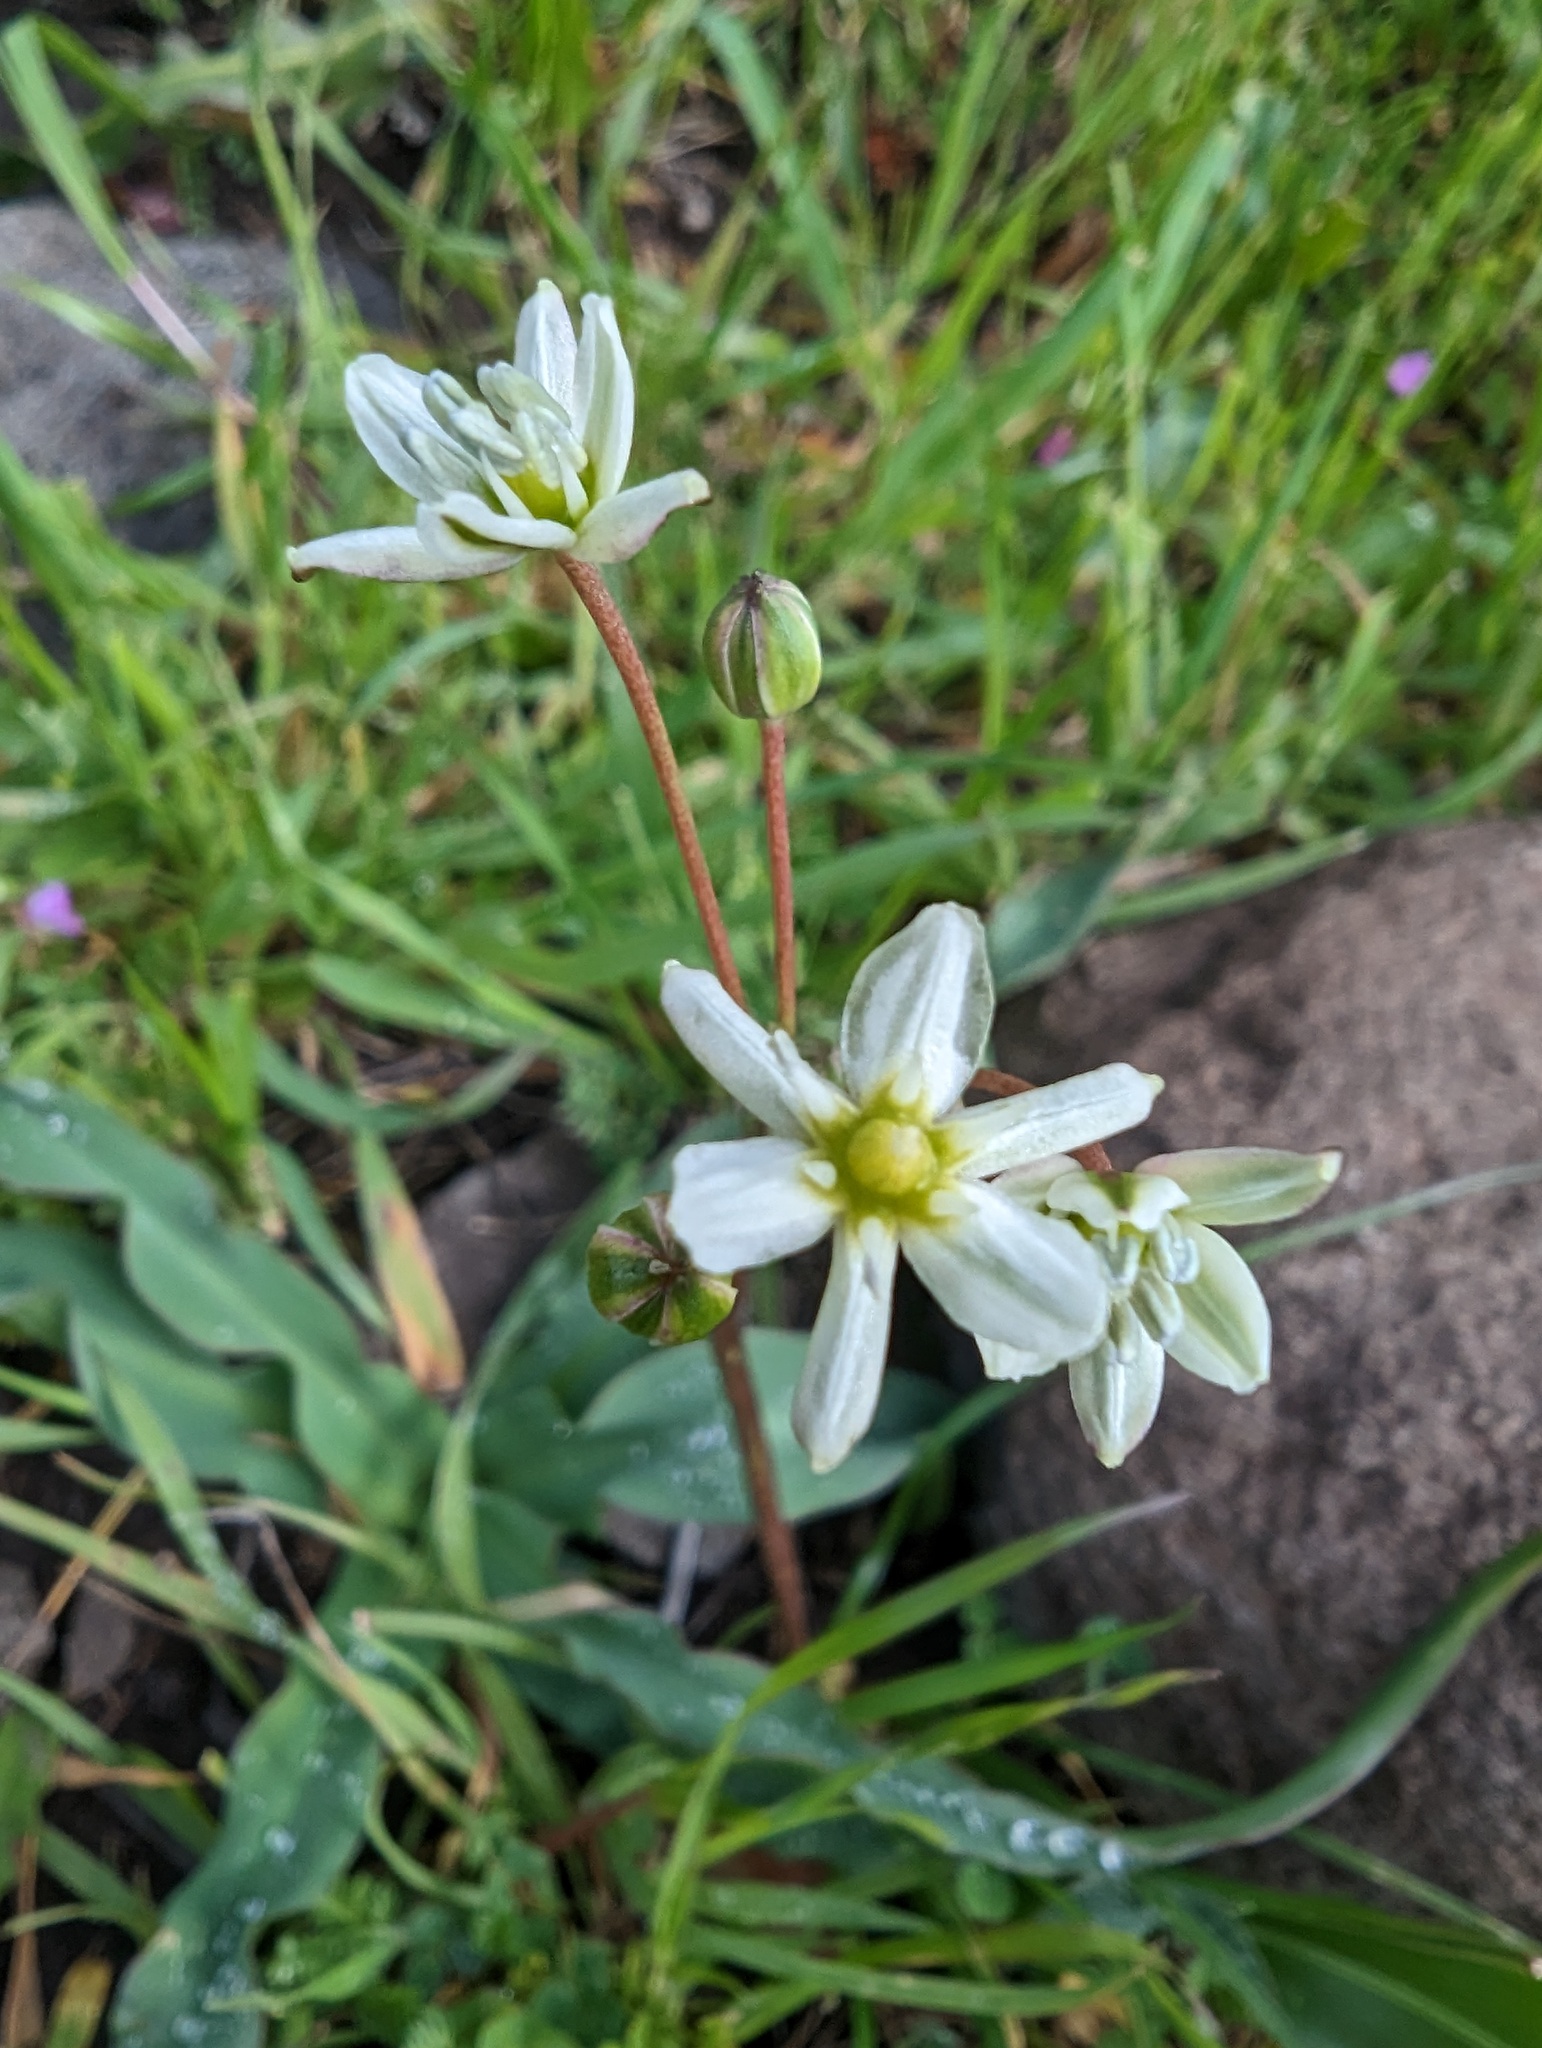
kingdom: Plantae
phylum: Tracheophyta
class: Liliopsida
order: Asparagales
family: Asparagaceae
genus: Muilla
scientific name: Muilla maritima
